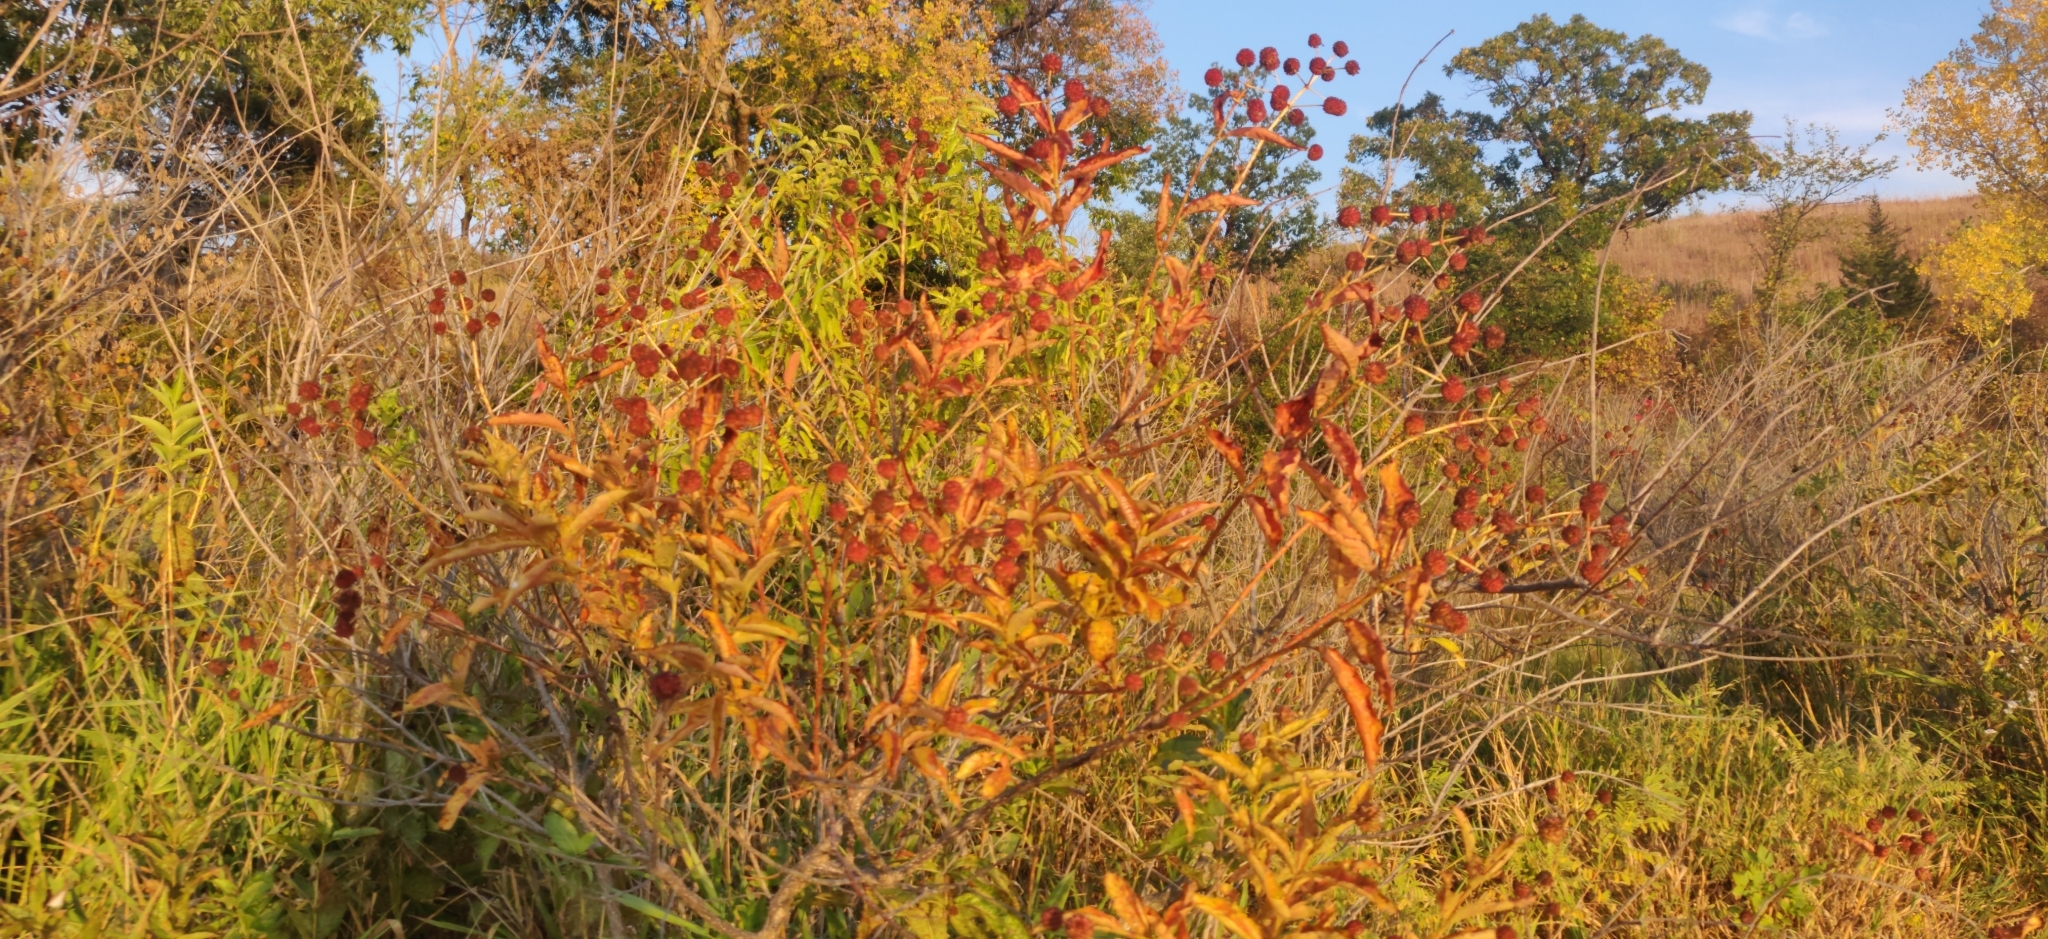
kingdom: Plantae
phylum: Tracheophyta
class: Magnoliopsida
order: Gentianales
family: Rubiaceae
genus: Cephalanthus
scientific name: Cephalanthus occidentalis
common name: Button-willow
